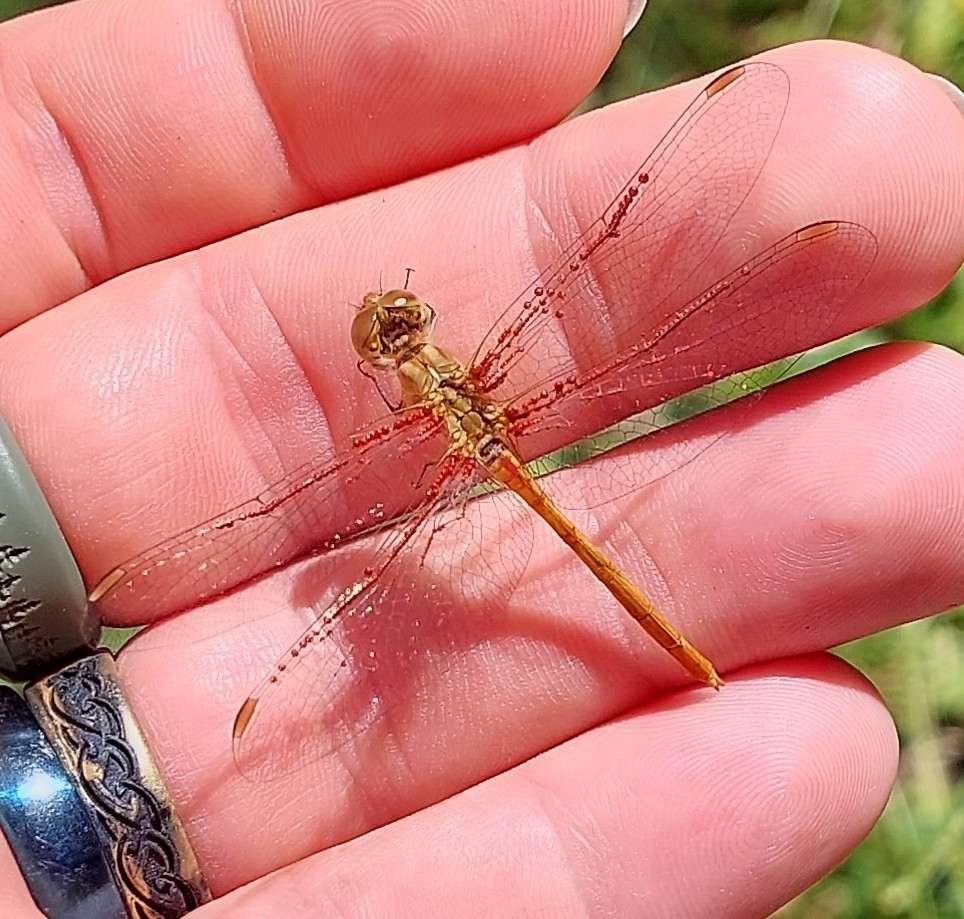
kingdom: Animalia
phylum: Arthropoda
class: Insecta
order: Odonata
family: Libellulidae
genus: Sympetrum
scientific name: Sympetrum meridionale
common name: Southern darter
